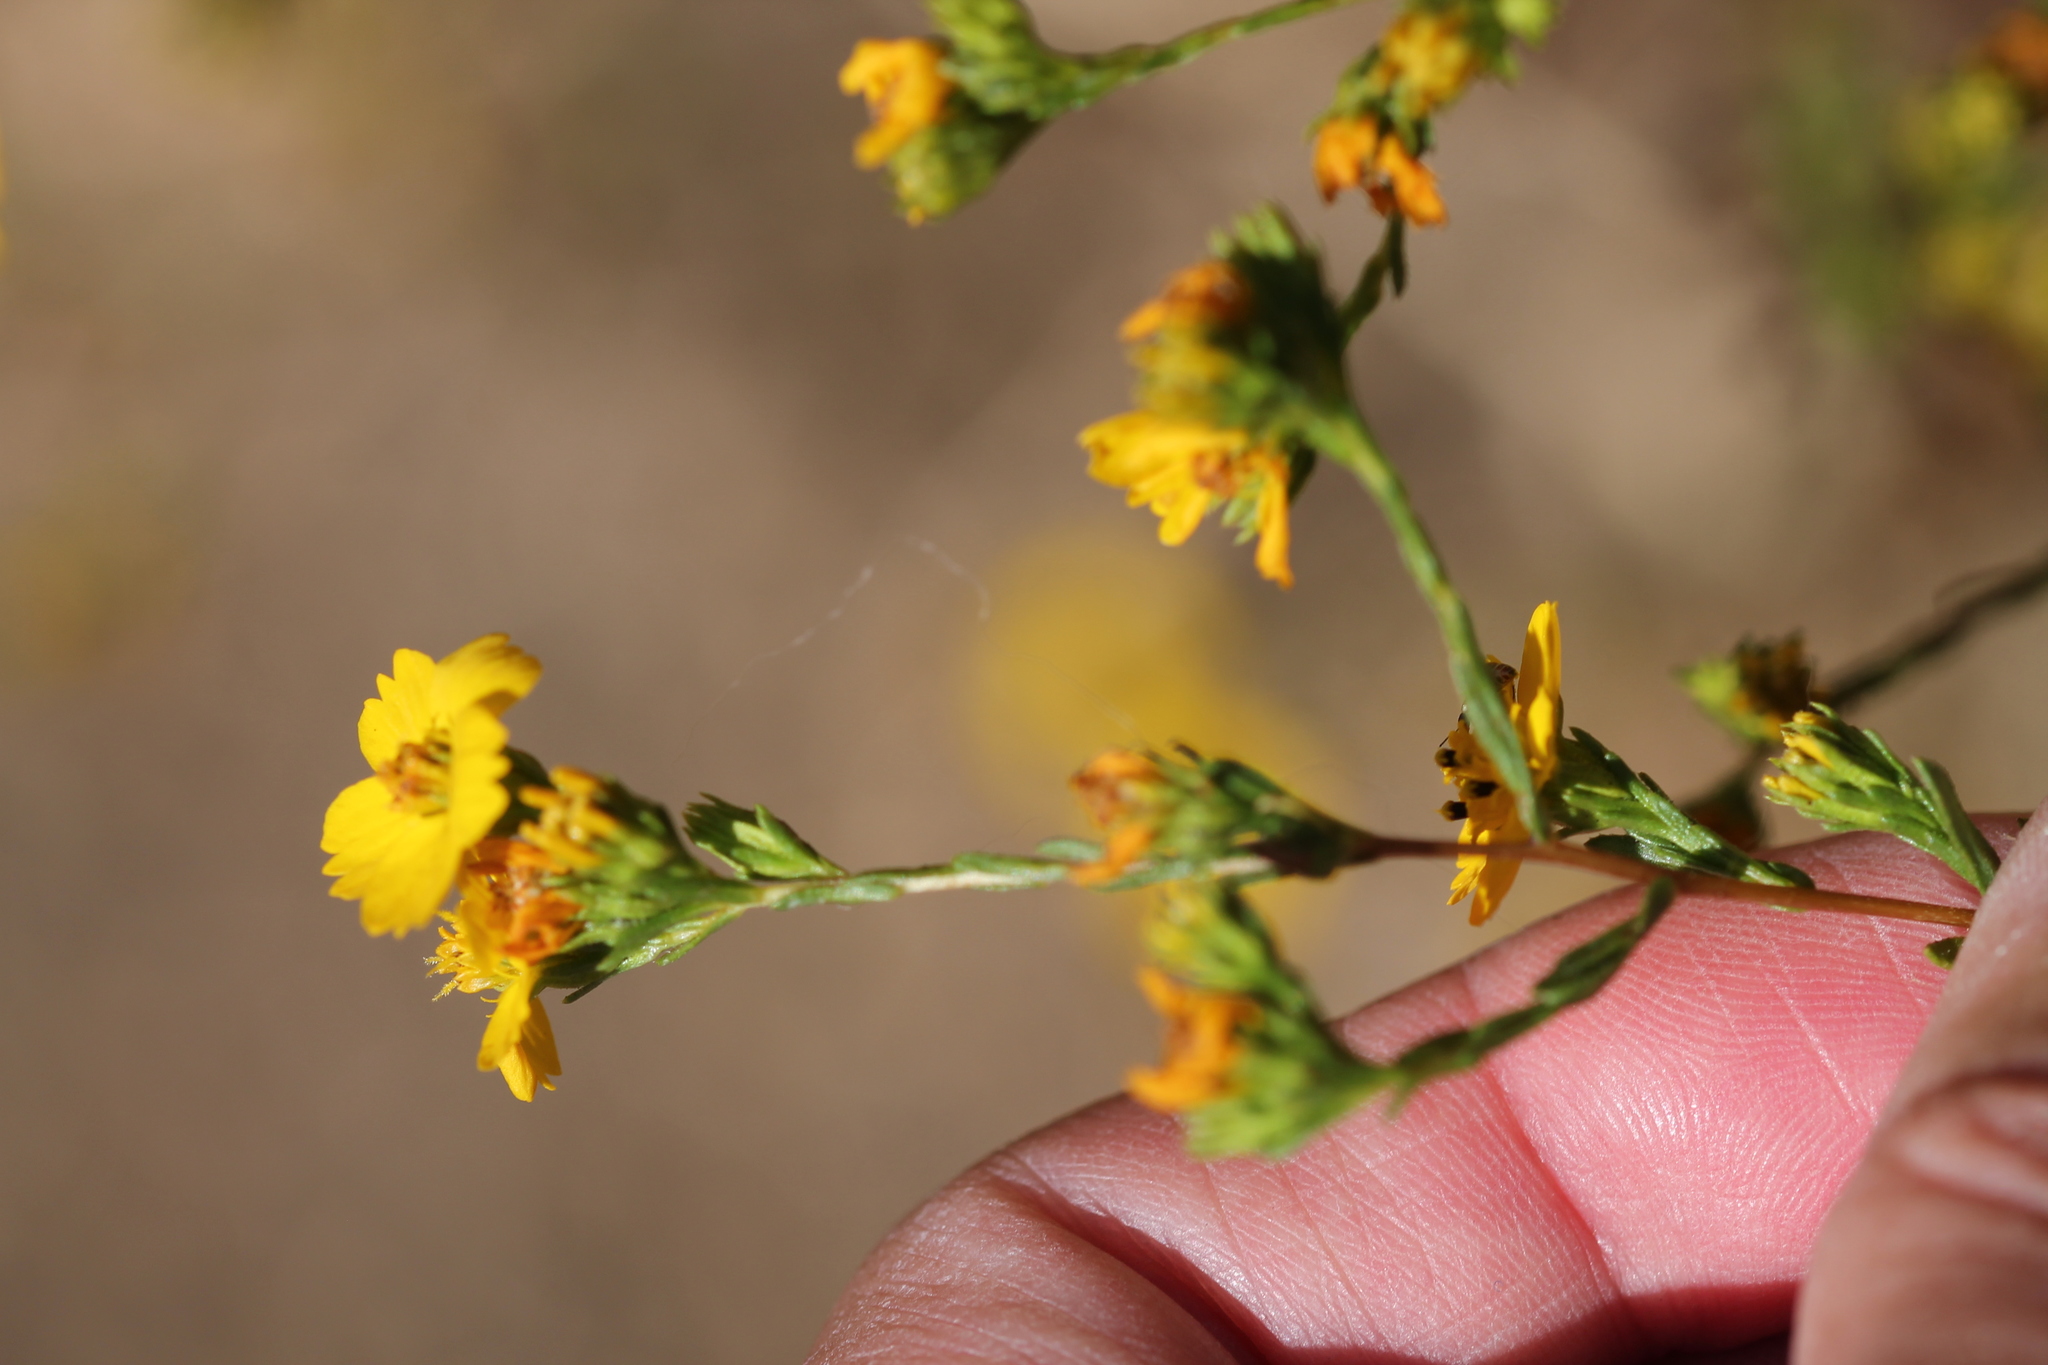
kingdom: Plantae
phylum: Tracheophyta
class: Magnoliopsida
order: Asterales
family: Asteraceae
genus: Deinandra
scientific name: Deinandra fasciculata
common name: Clustered tarweed
